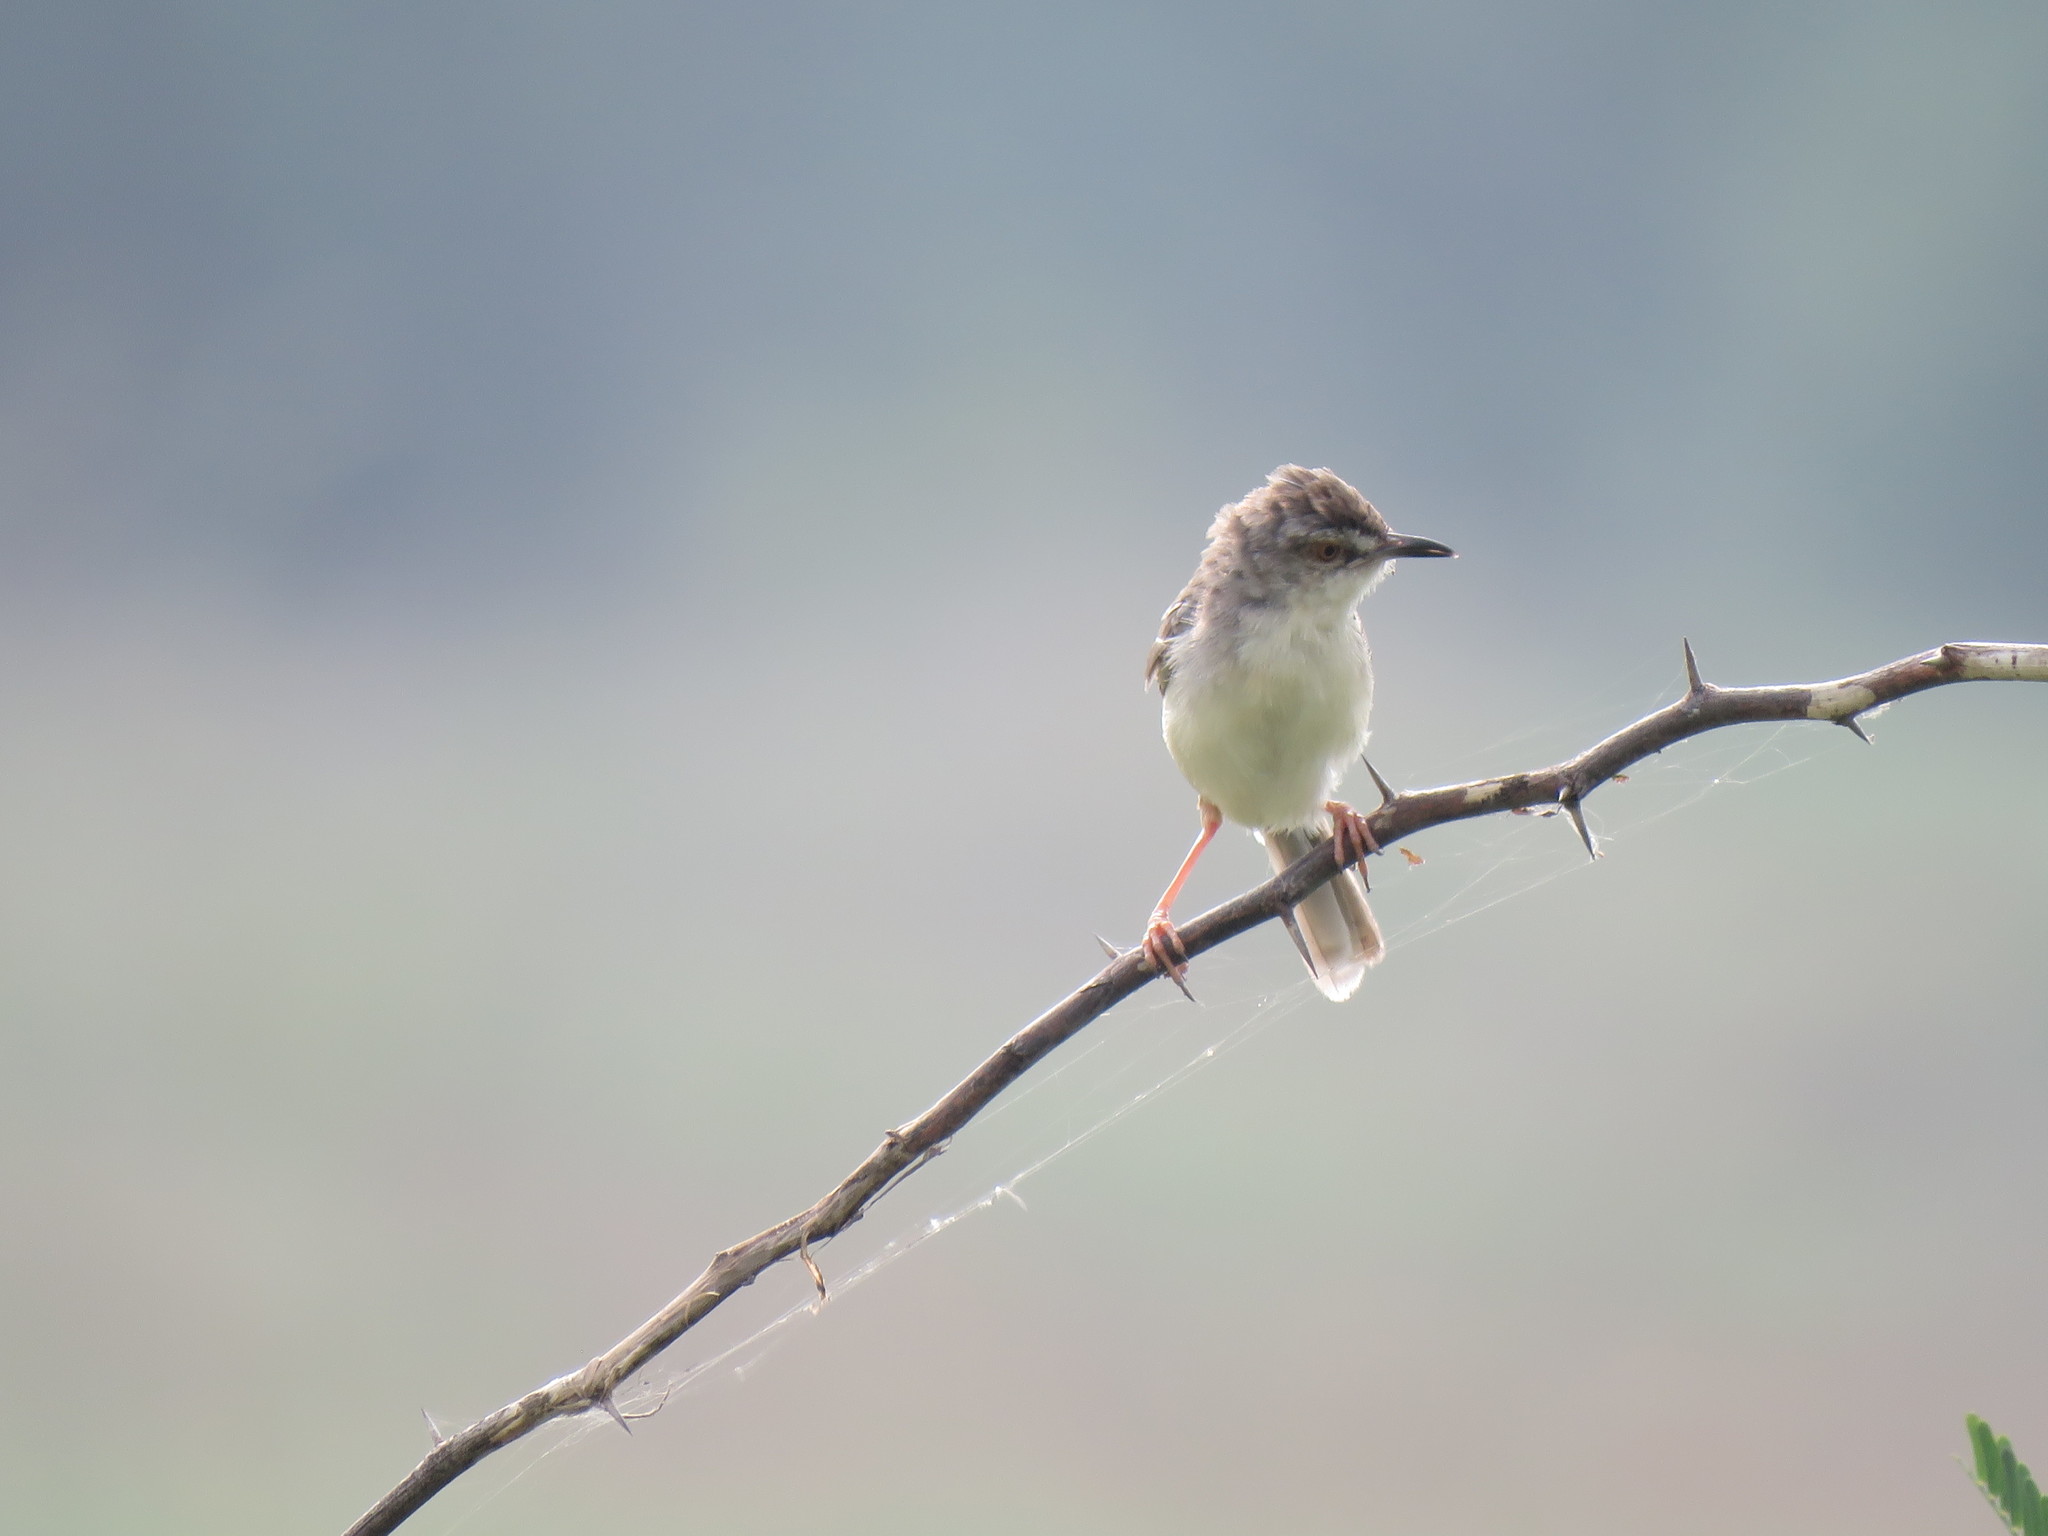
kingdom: Animalia
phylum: Chordata
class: Aves
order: Passeriformes
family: Cisticolidae
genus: Prinia
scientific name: Prinia inornata
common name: Plain prinia
